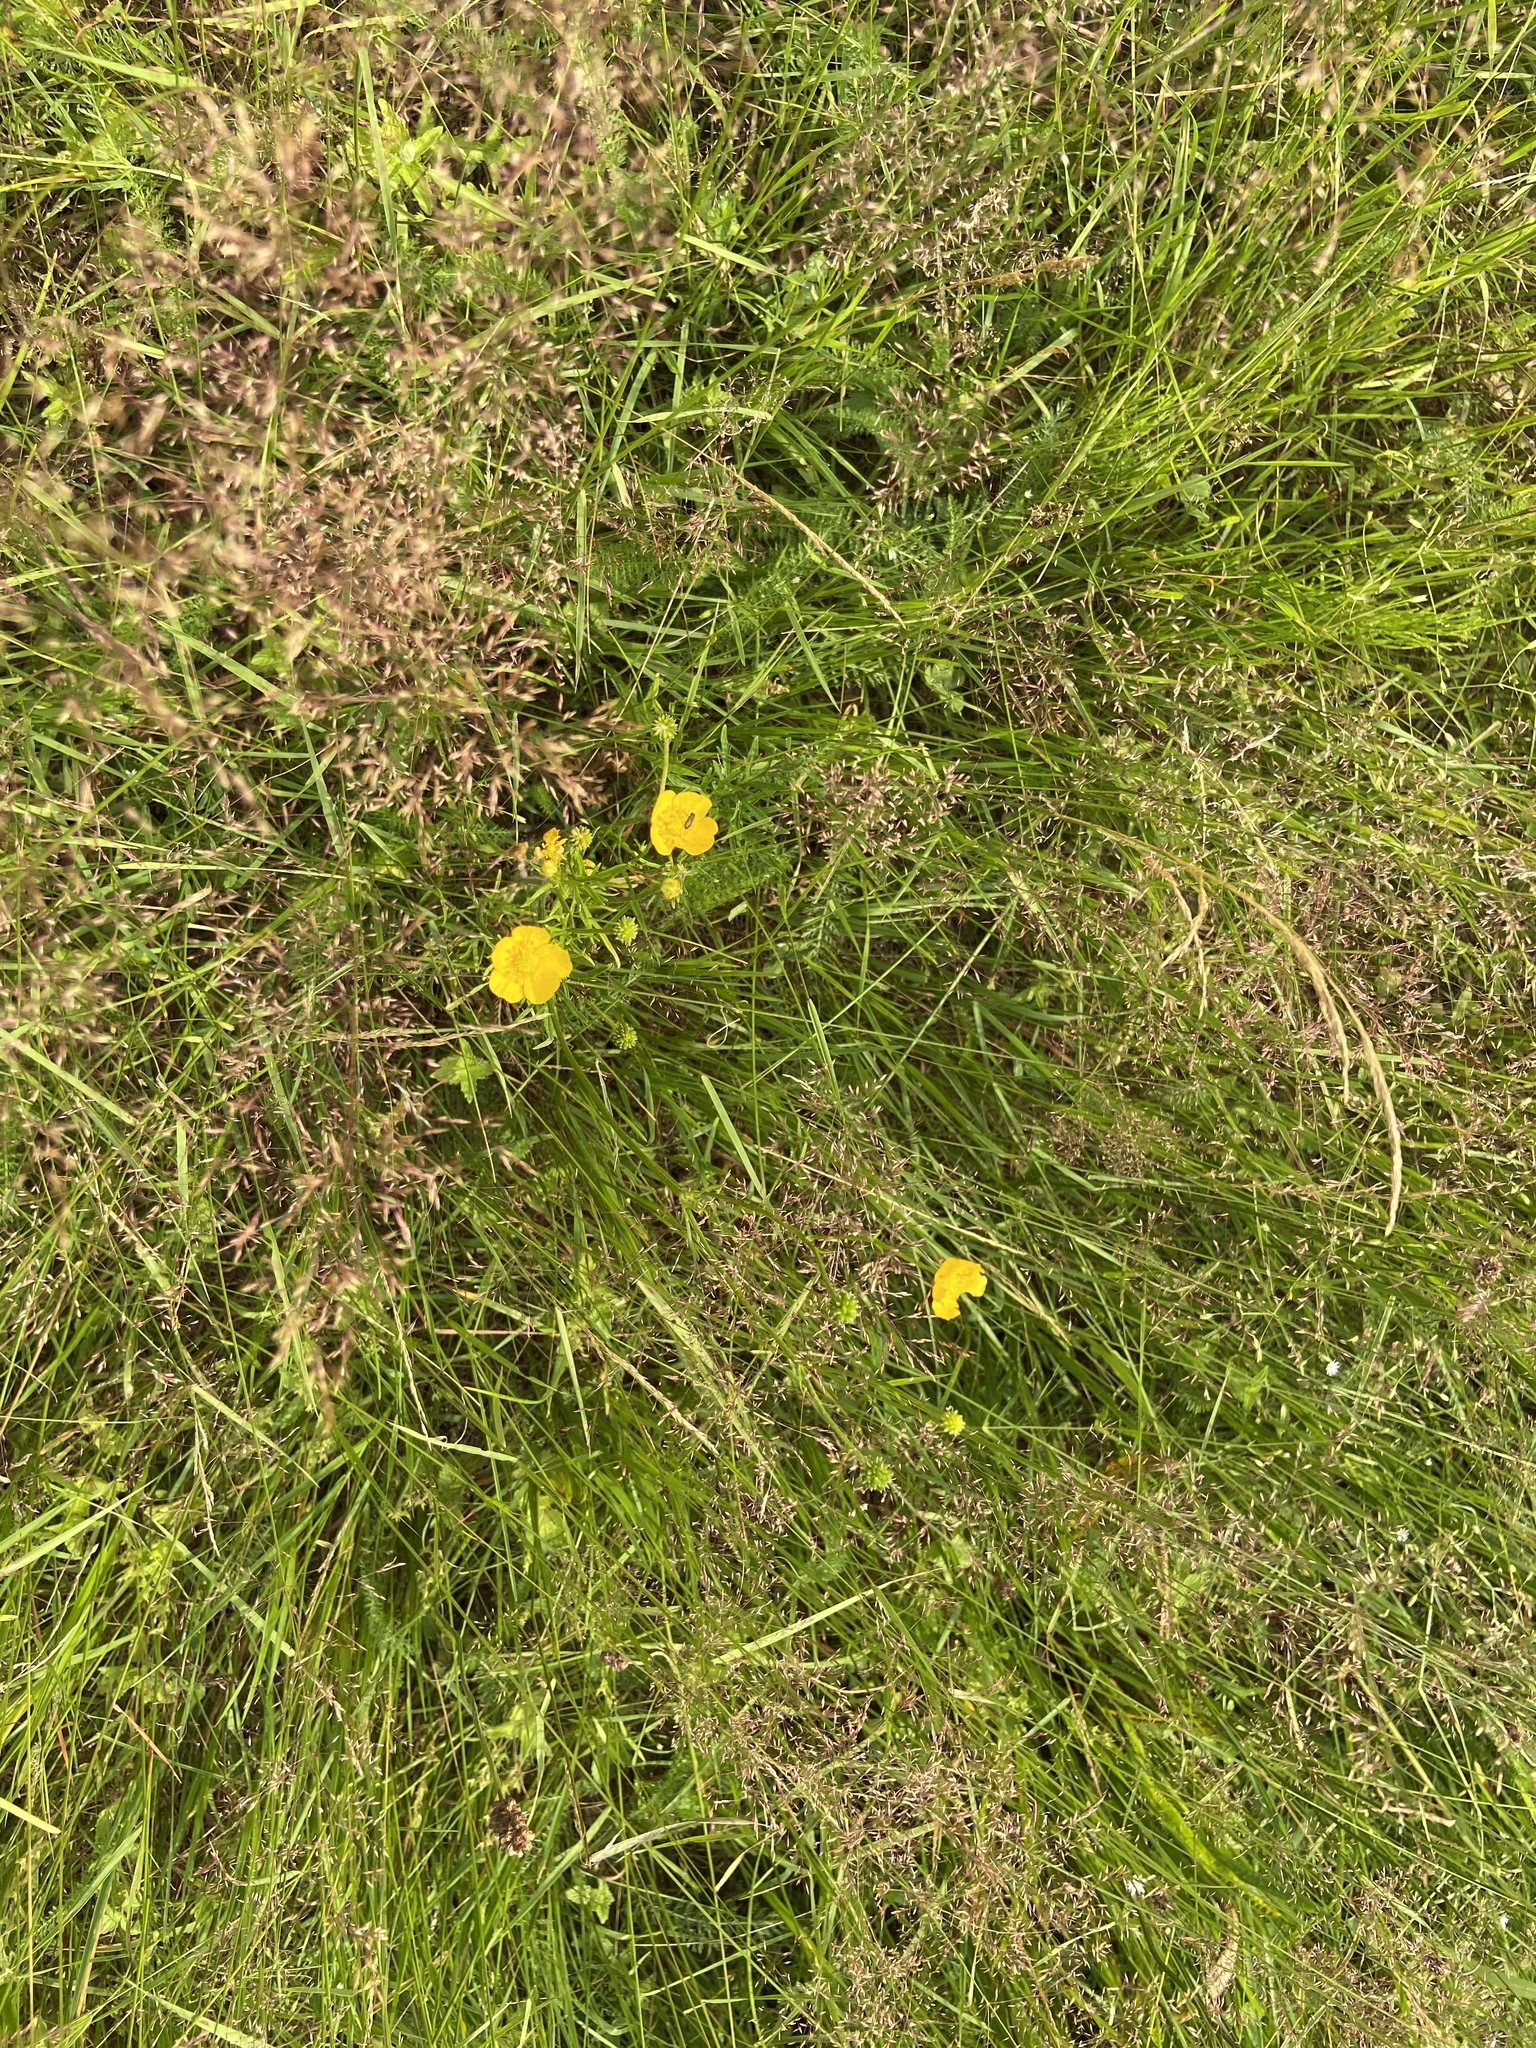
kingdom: Plantae
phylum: Tracheophyta
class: Magnoliopsida
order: Ranunculales
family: Ranunculaceae
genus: Ranunculus
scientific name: Ranunculus polyanthemos
